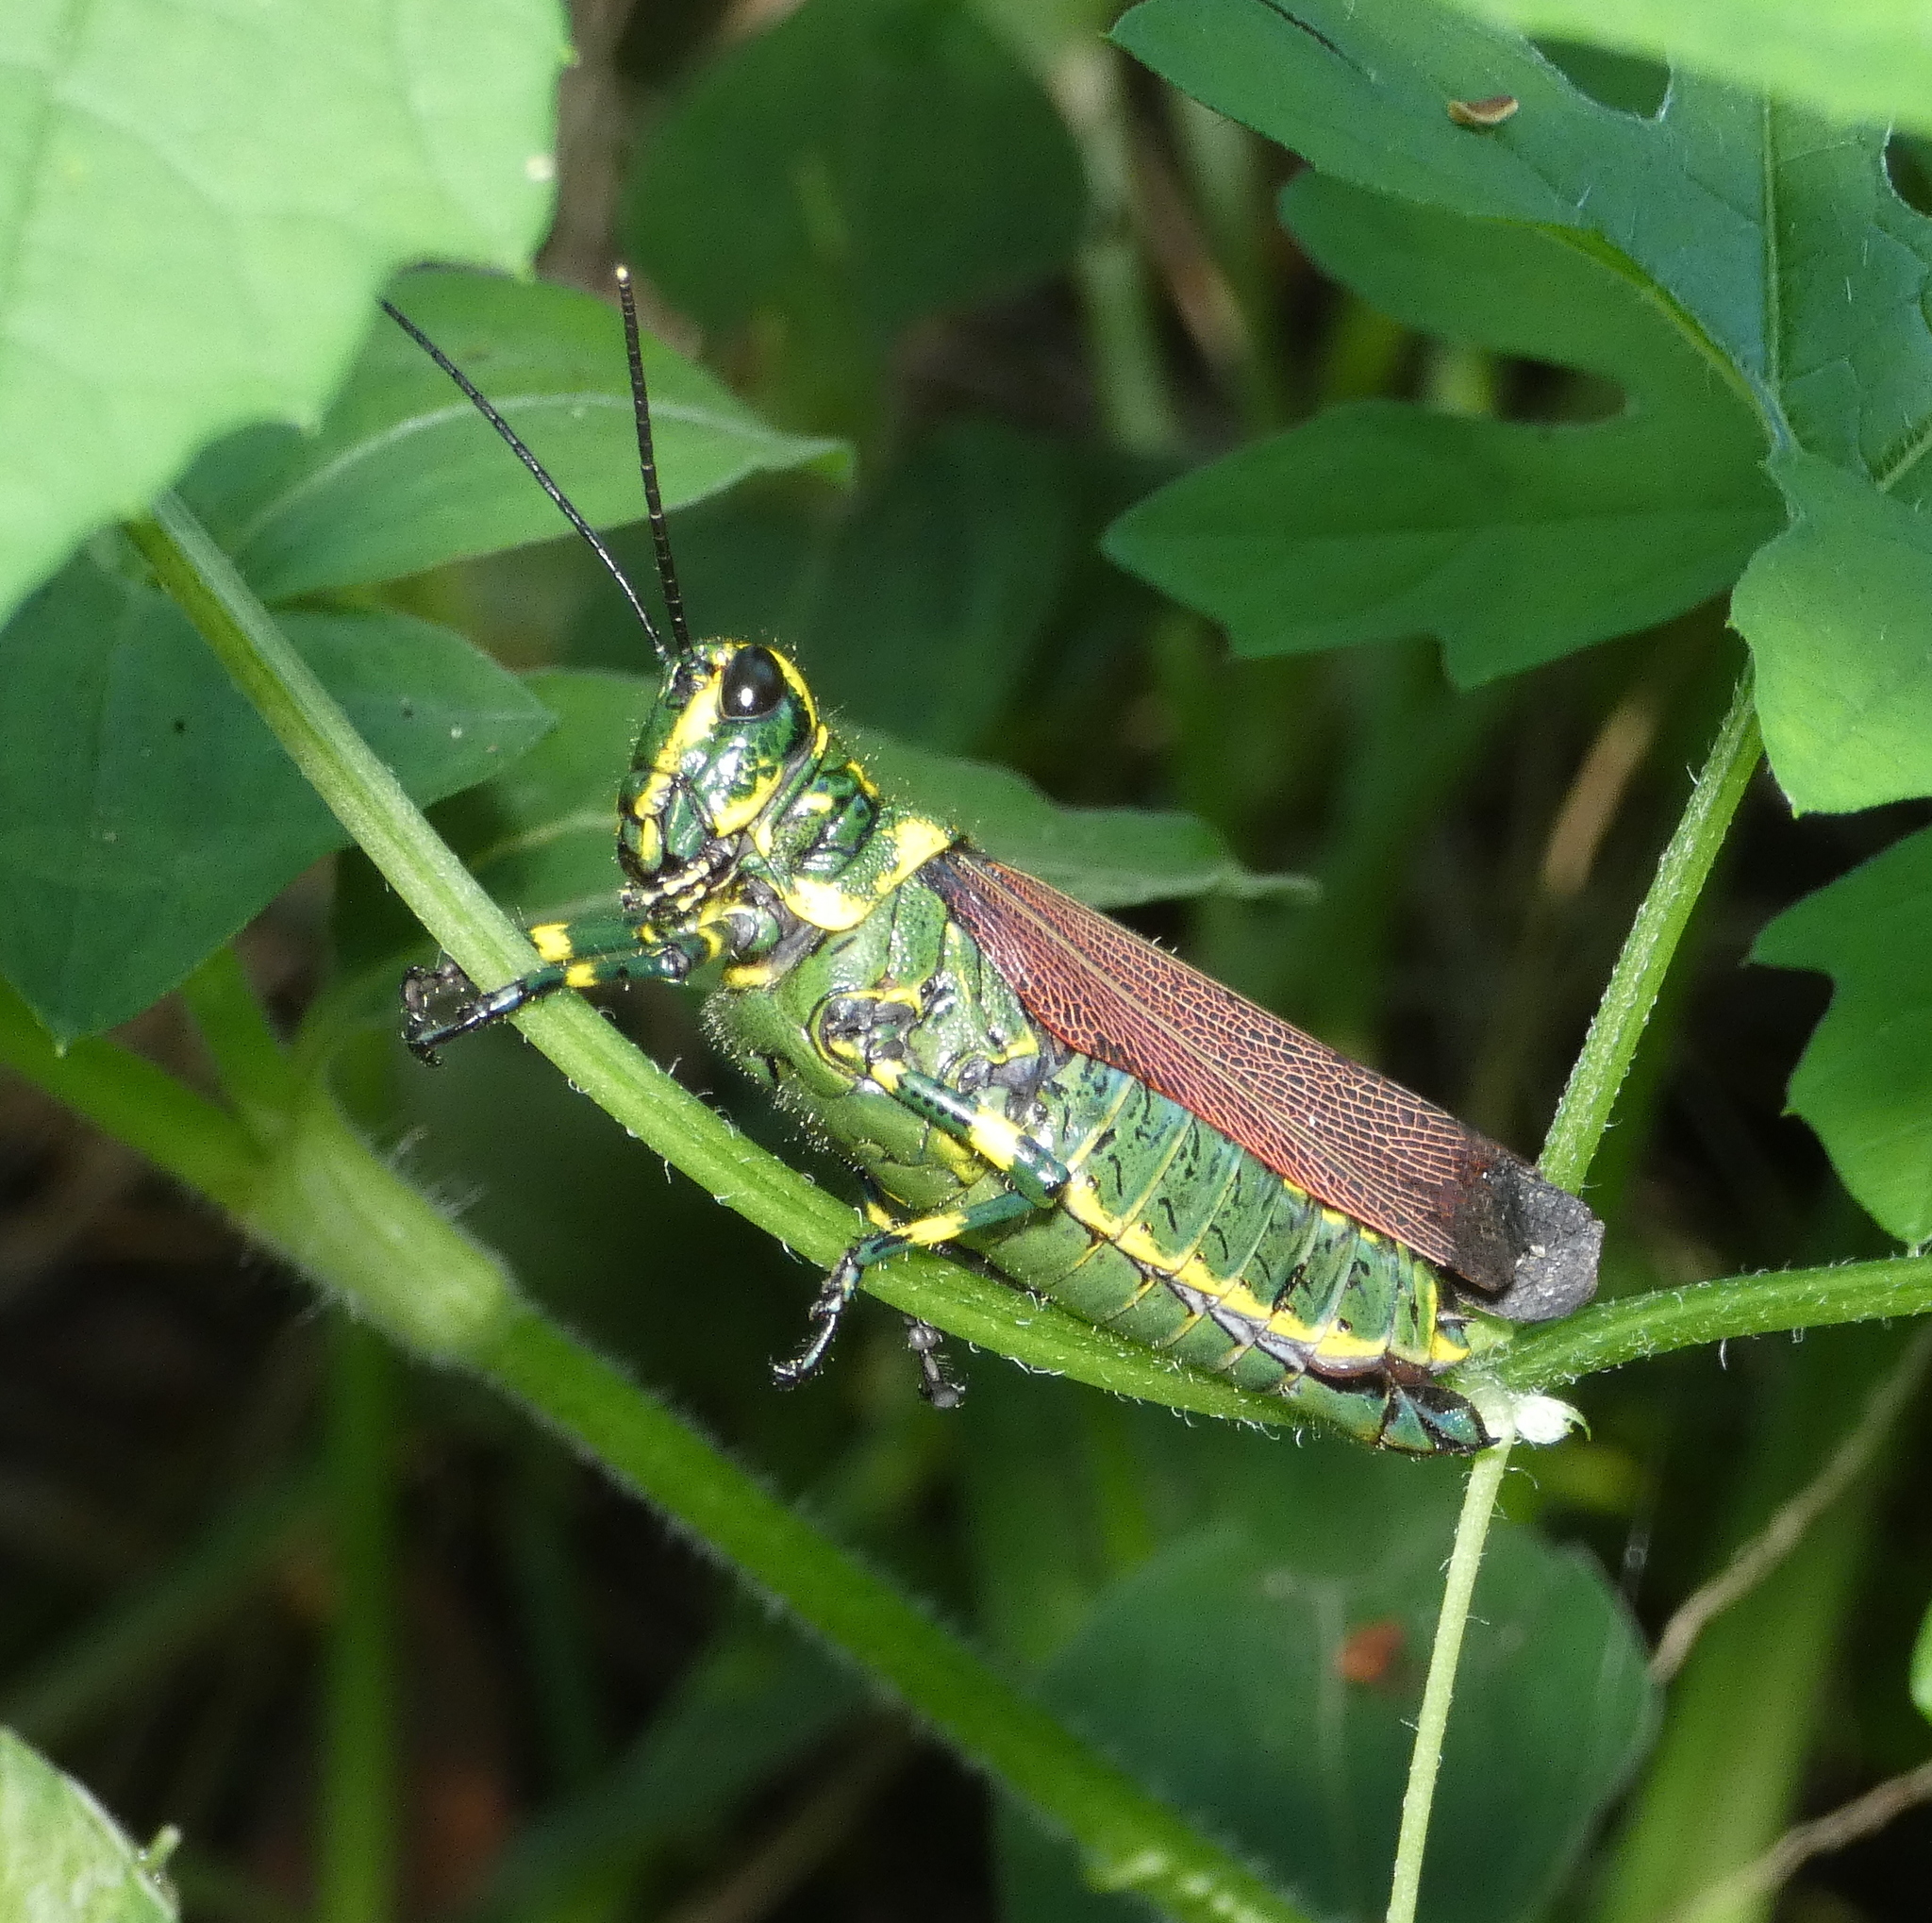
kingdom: Animalia
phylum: Arthropoda
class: Insecta
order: Orthoptera
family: Romaleidae
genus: Chromacris
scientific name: Chromacris speciosa
